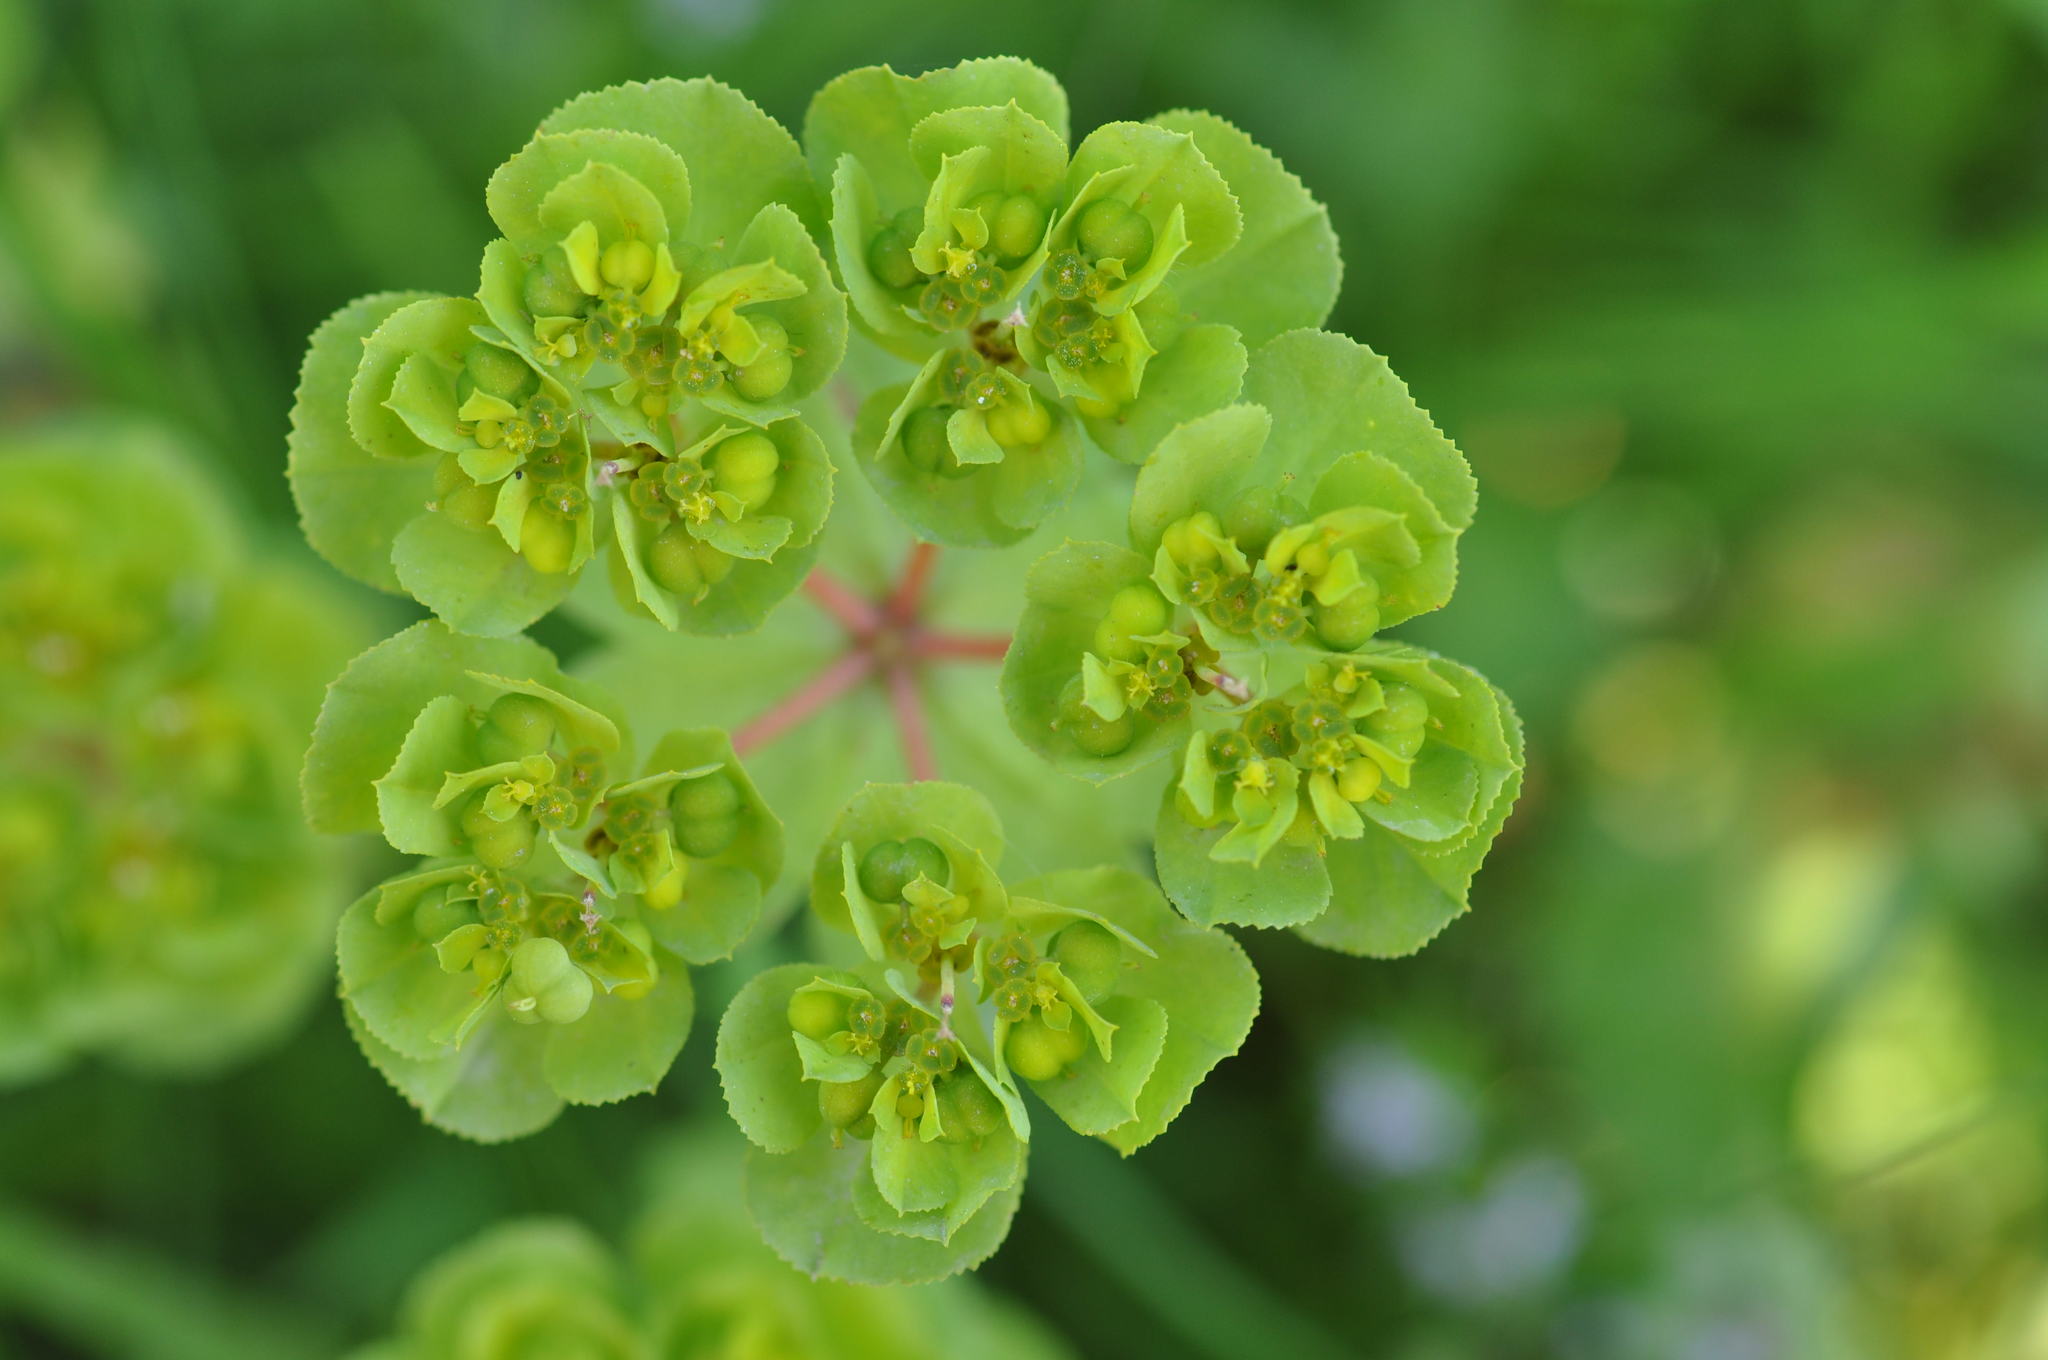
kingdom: Plantae
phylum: Tracheophyta
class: Magnoliopsida
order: Malpighiales
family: Euphorbiaceae
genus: Euphorbia
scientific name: Euphorbia helioscopia
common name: Sun spurge
